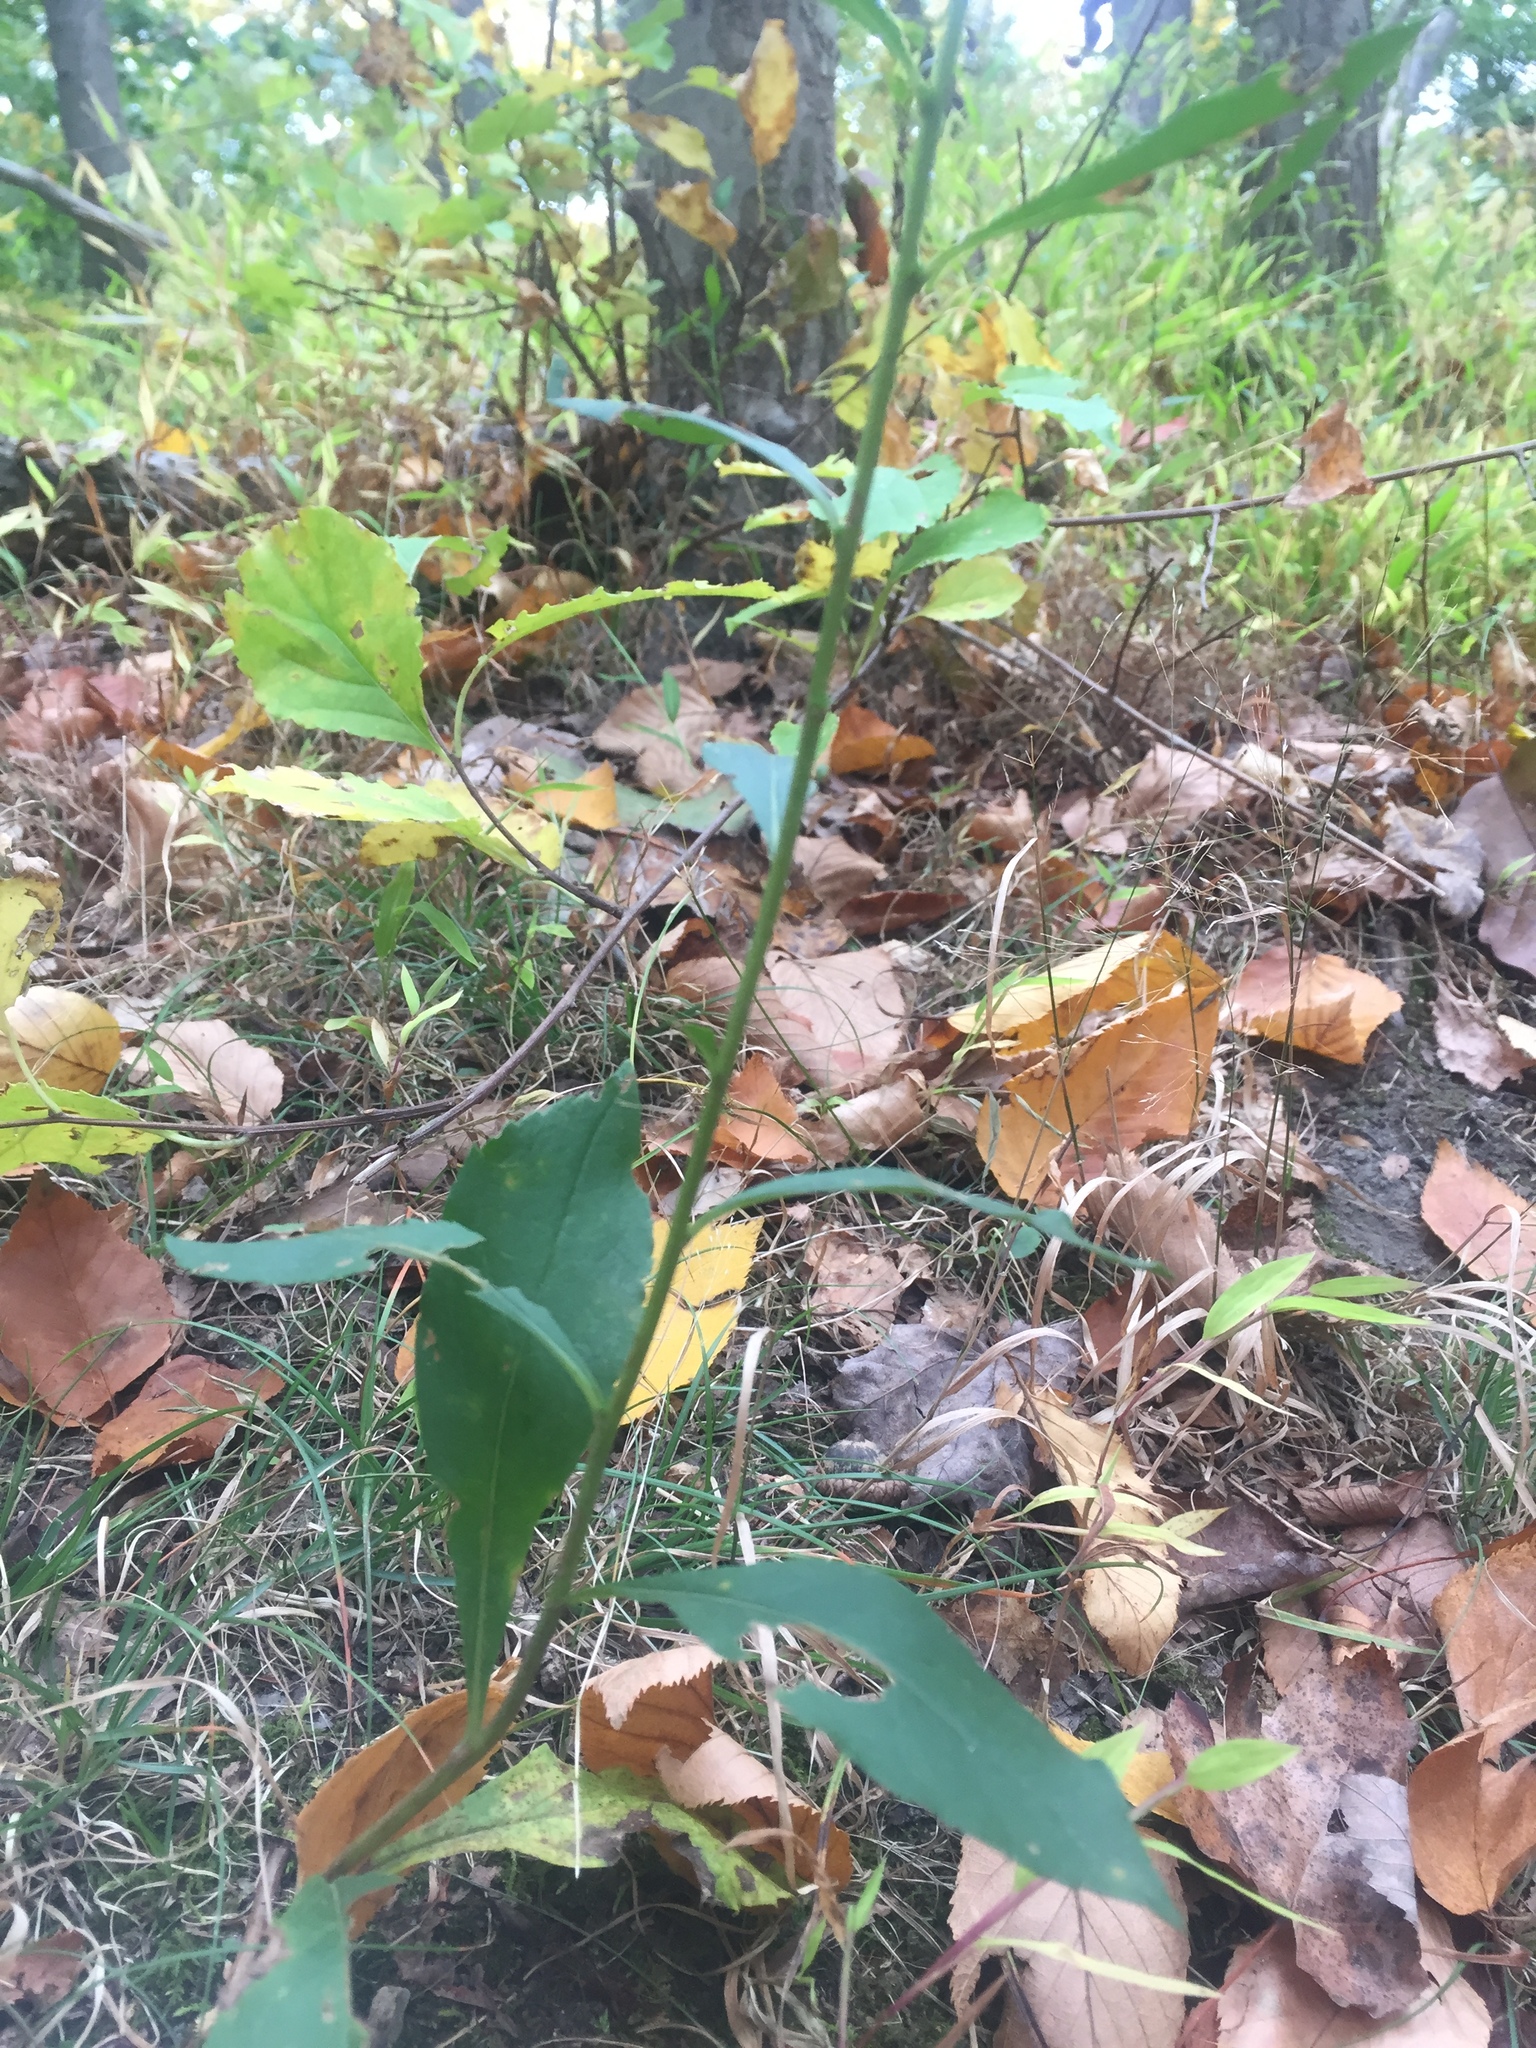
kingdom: Plantae
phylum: Tracheophyta
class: Magnoliopsida
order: Asterales
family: Asteraceae
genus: Solidago
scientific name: Solidago bicolor
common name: Silverrod
